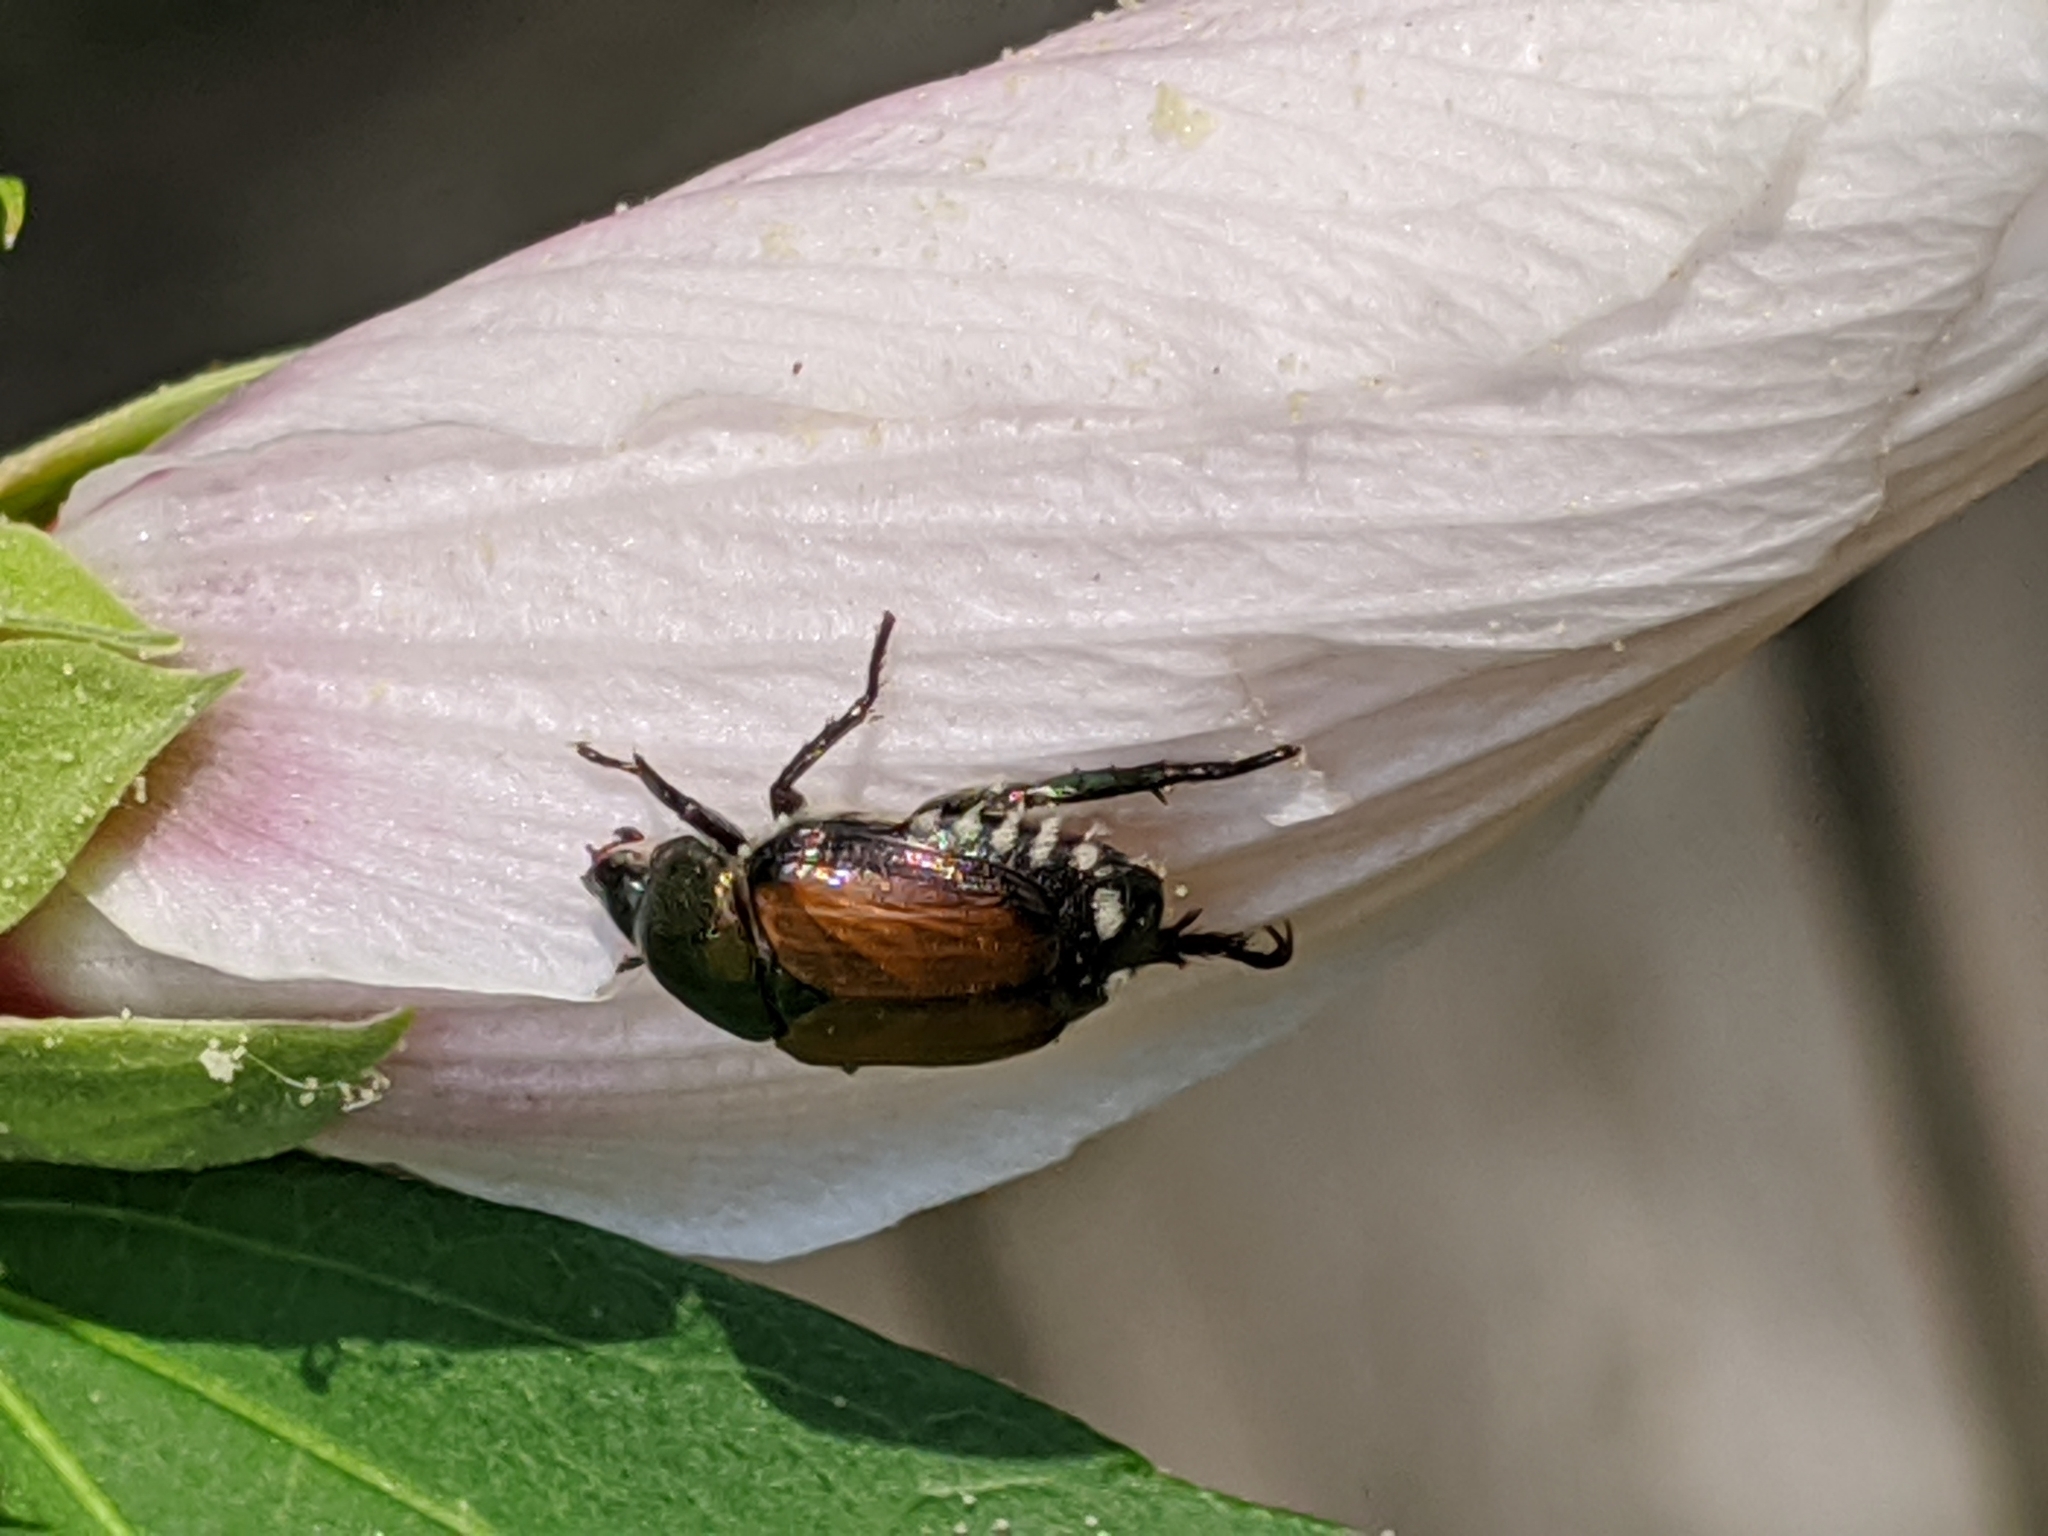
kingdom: Animalia
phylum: Arthropoda
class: Insecta
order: Coleoptera
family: Scarabaeidae
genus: Popillia
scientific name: Popillia japonica
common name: Japanese beetle
